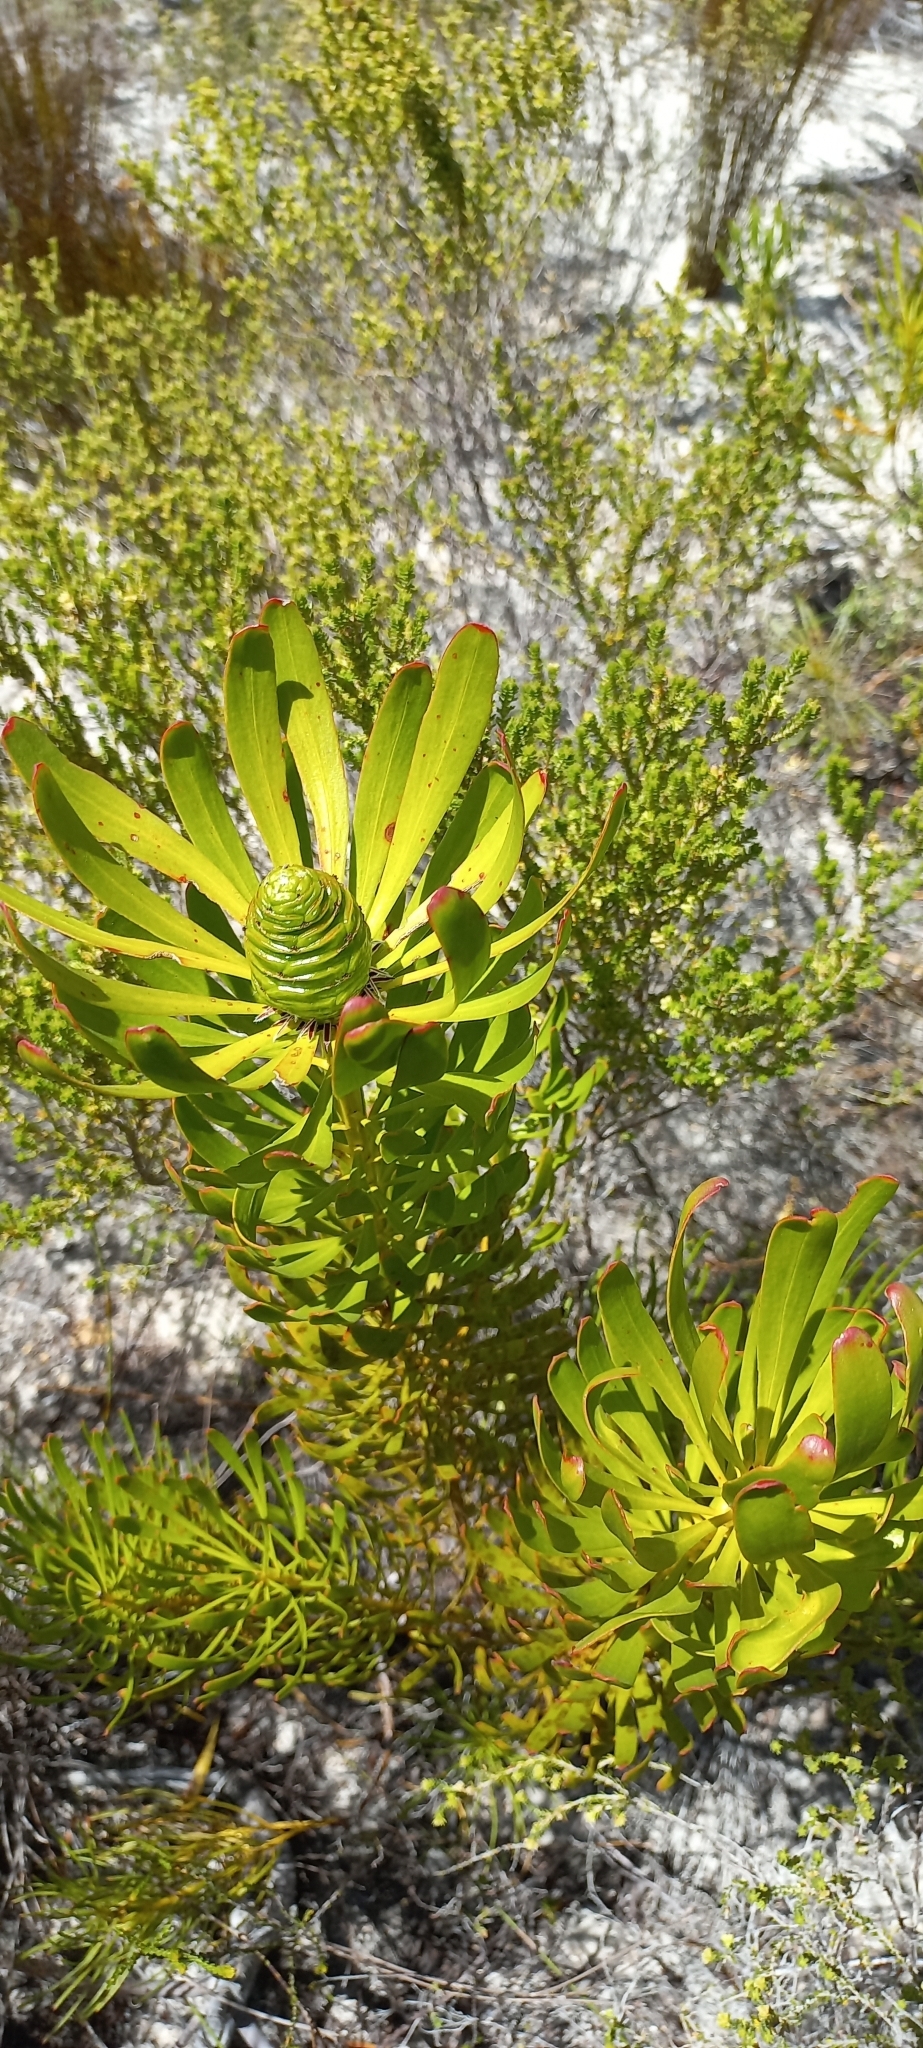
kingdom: Plantae
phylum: Tracheophyta
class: Magnoliopsida
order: Proteales
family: Proteaceae
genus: Leucadendron
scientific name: Leucadendron platyspermum
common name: Plate-seed conebush
